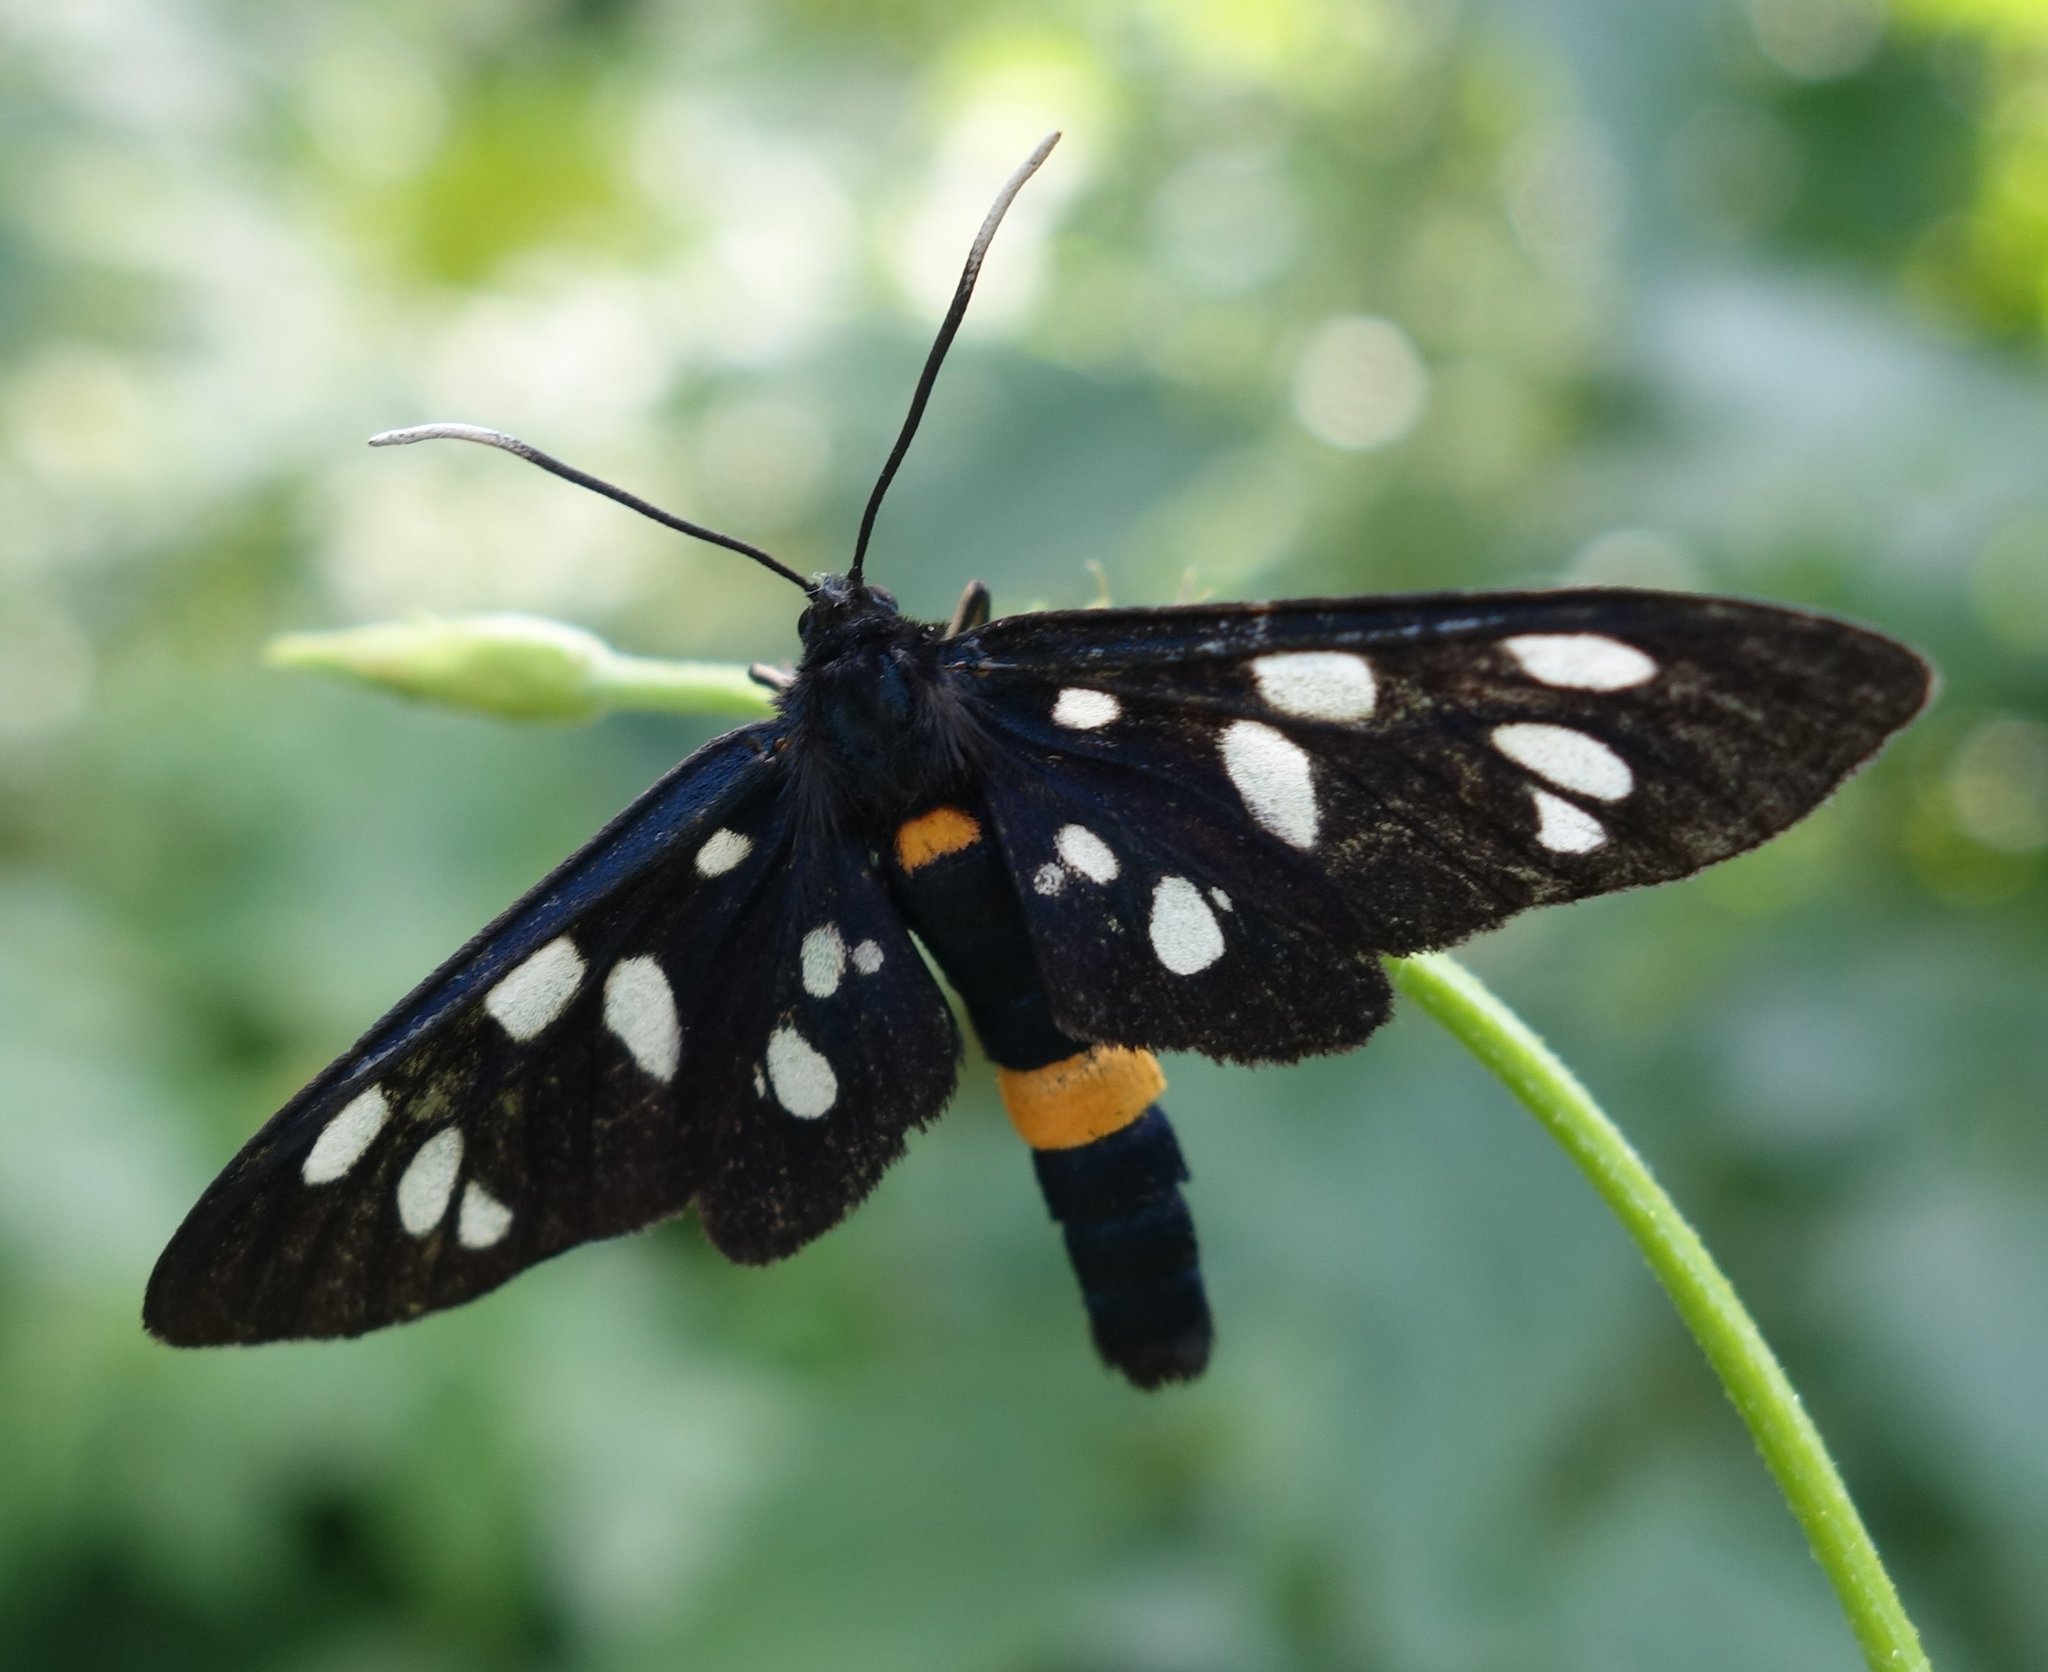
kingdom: Animalia
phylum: Arthropoda
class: Insecta
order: Lepidoptera
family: Erebidae
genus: Amata
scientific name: Amata phegea
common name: Nine-spotted
